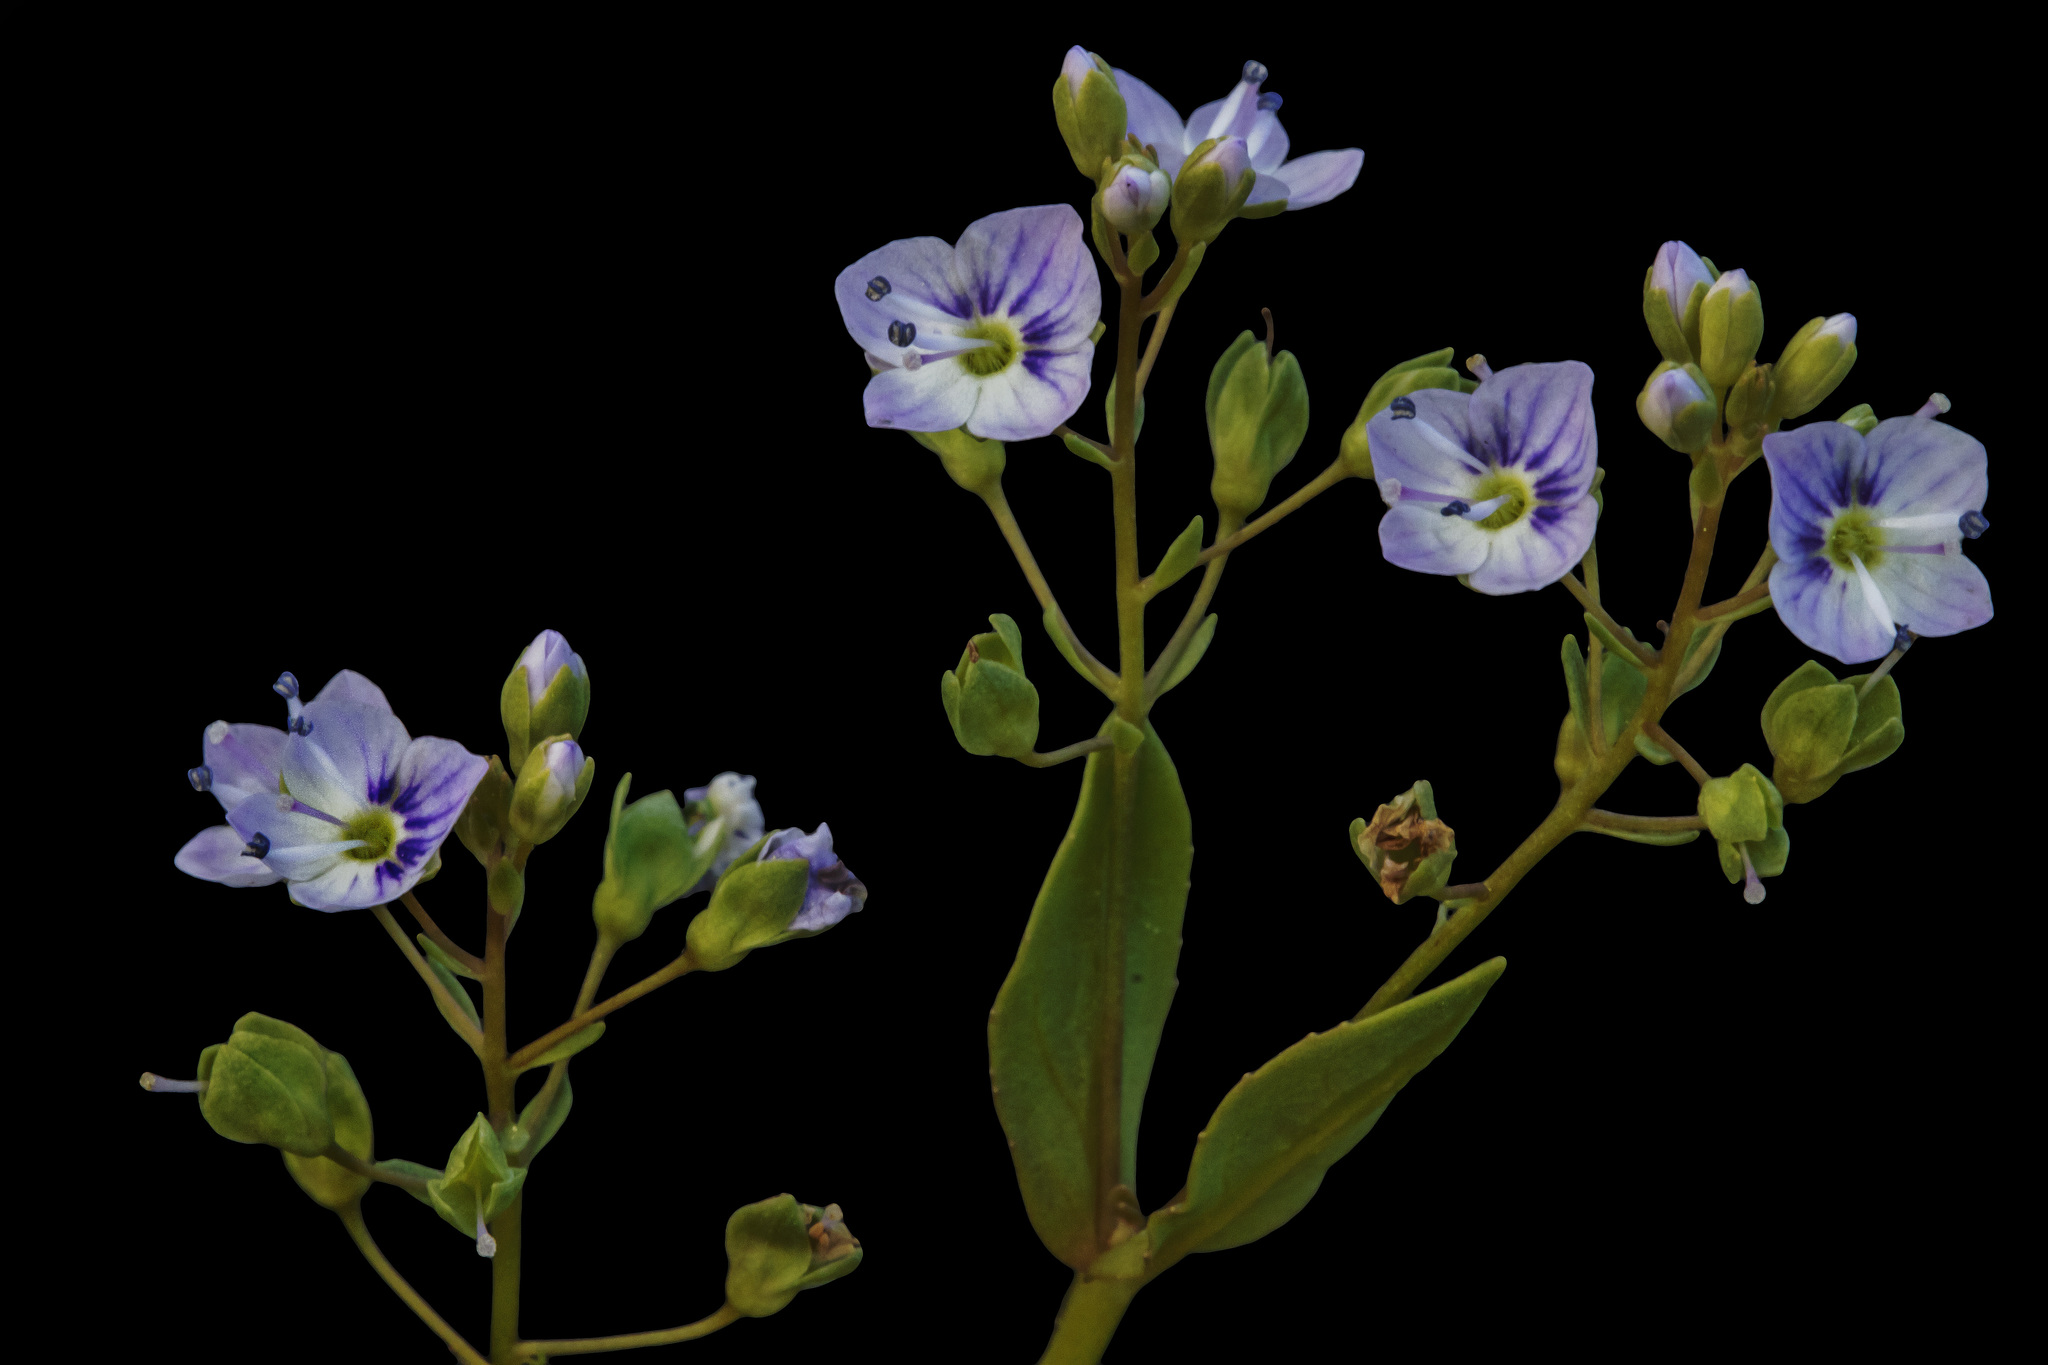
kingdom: Plantae
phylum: Tracheophyta
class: Magnoliopsida
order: Lamiales
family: Plantaginaceae
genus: Veronica
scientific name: Veronica anagallis-aquatica
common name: Water speedwell
